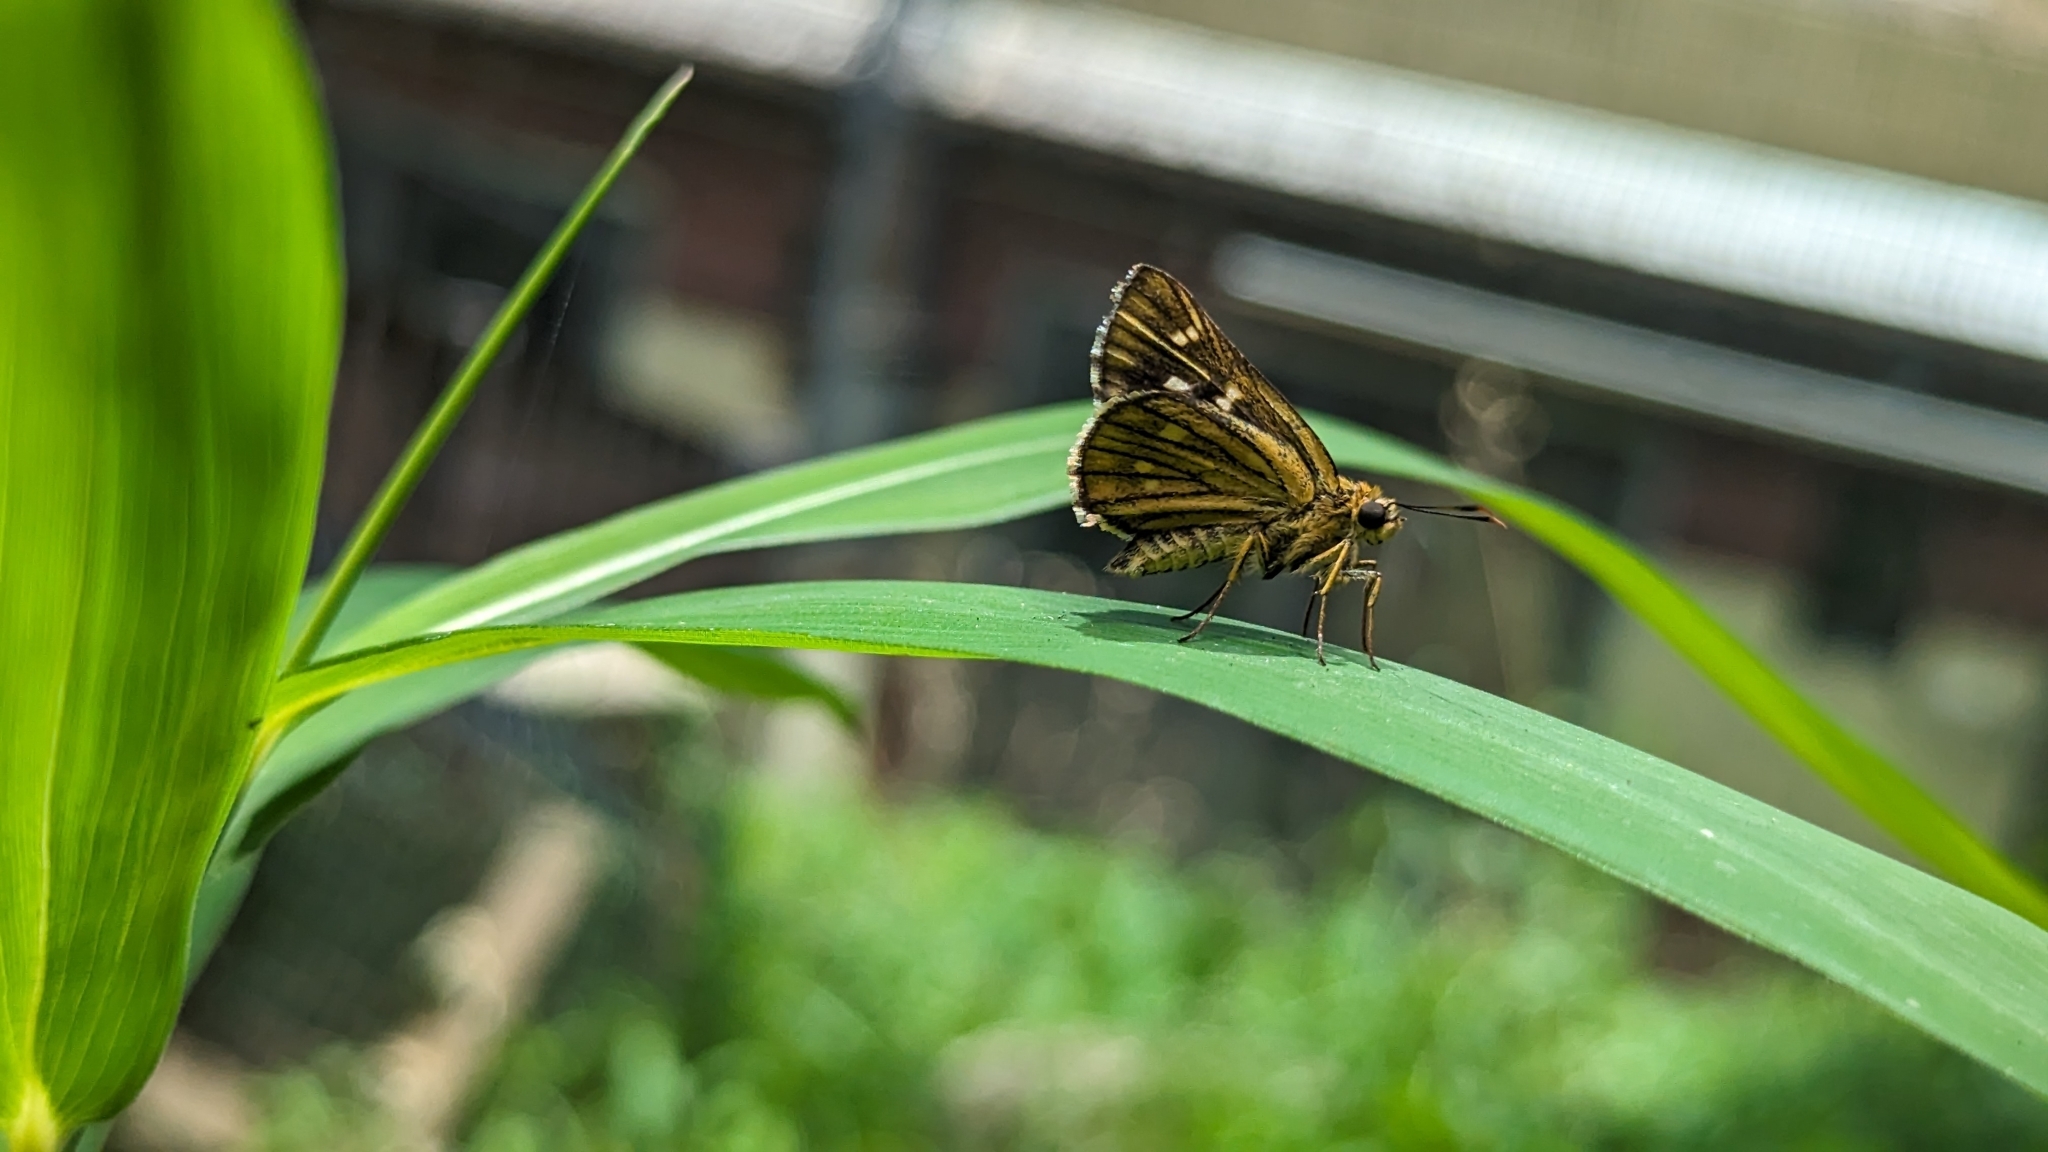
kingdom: Animalia
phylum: Arthropoda
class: Insecta
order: Lepidoptera
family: Hesperiidae
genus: Thoressa
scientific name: Thoressa varia
